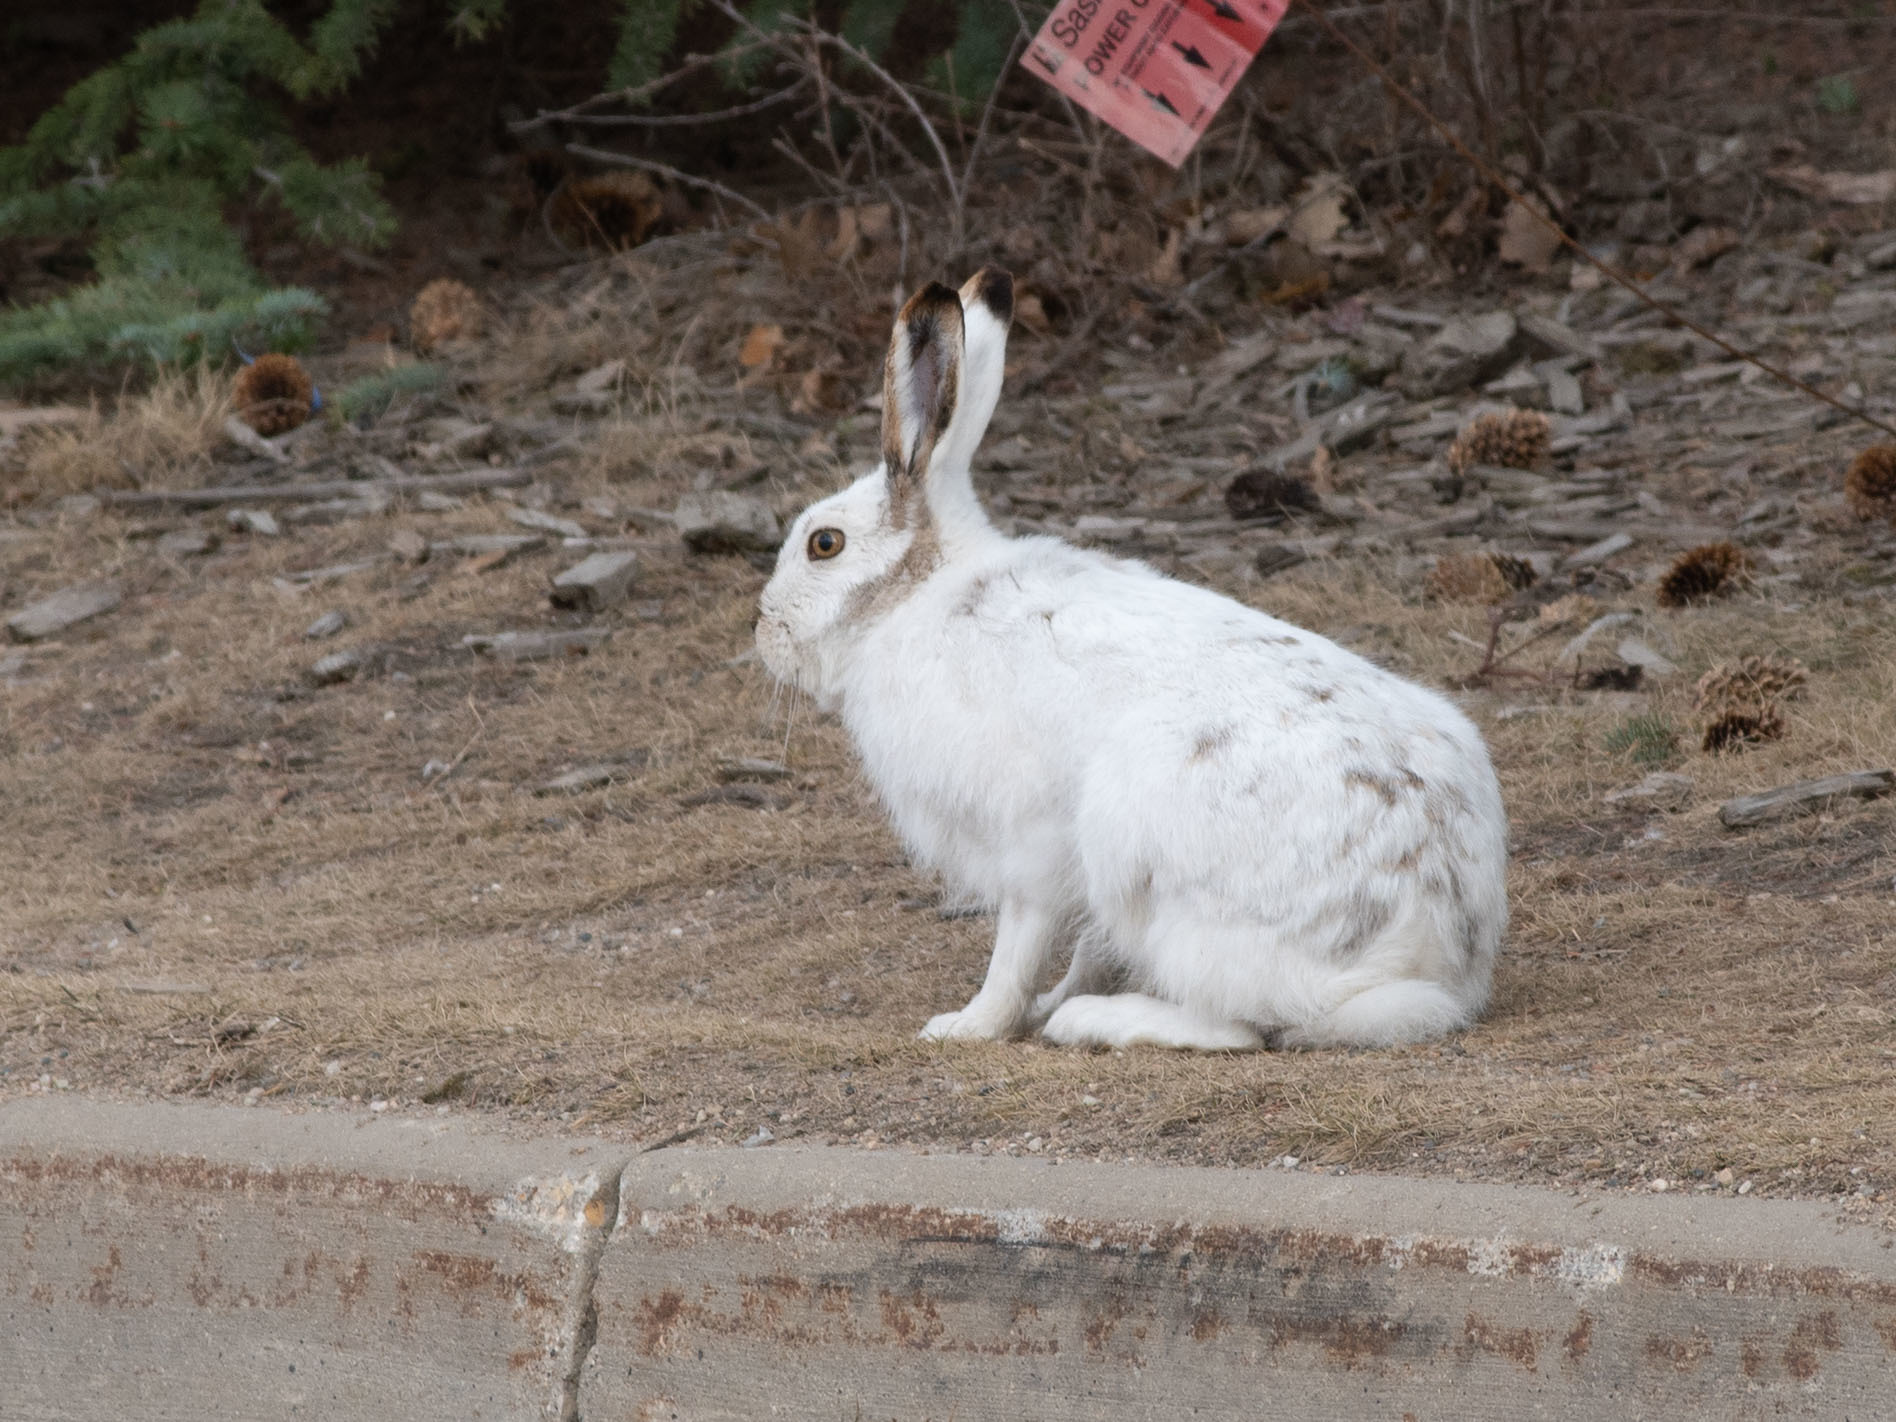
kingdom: Animalia
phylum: Chordata
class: Mammalia
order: Lagomorpha
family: Leporidae
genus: Lepus
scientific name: Lepus townsendii
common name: White-tailed jackrabbit
